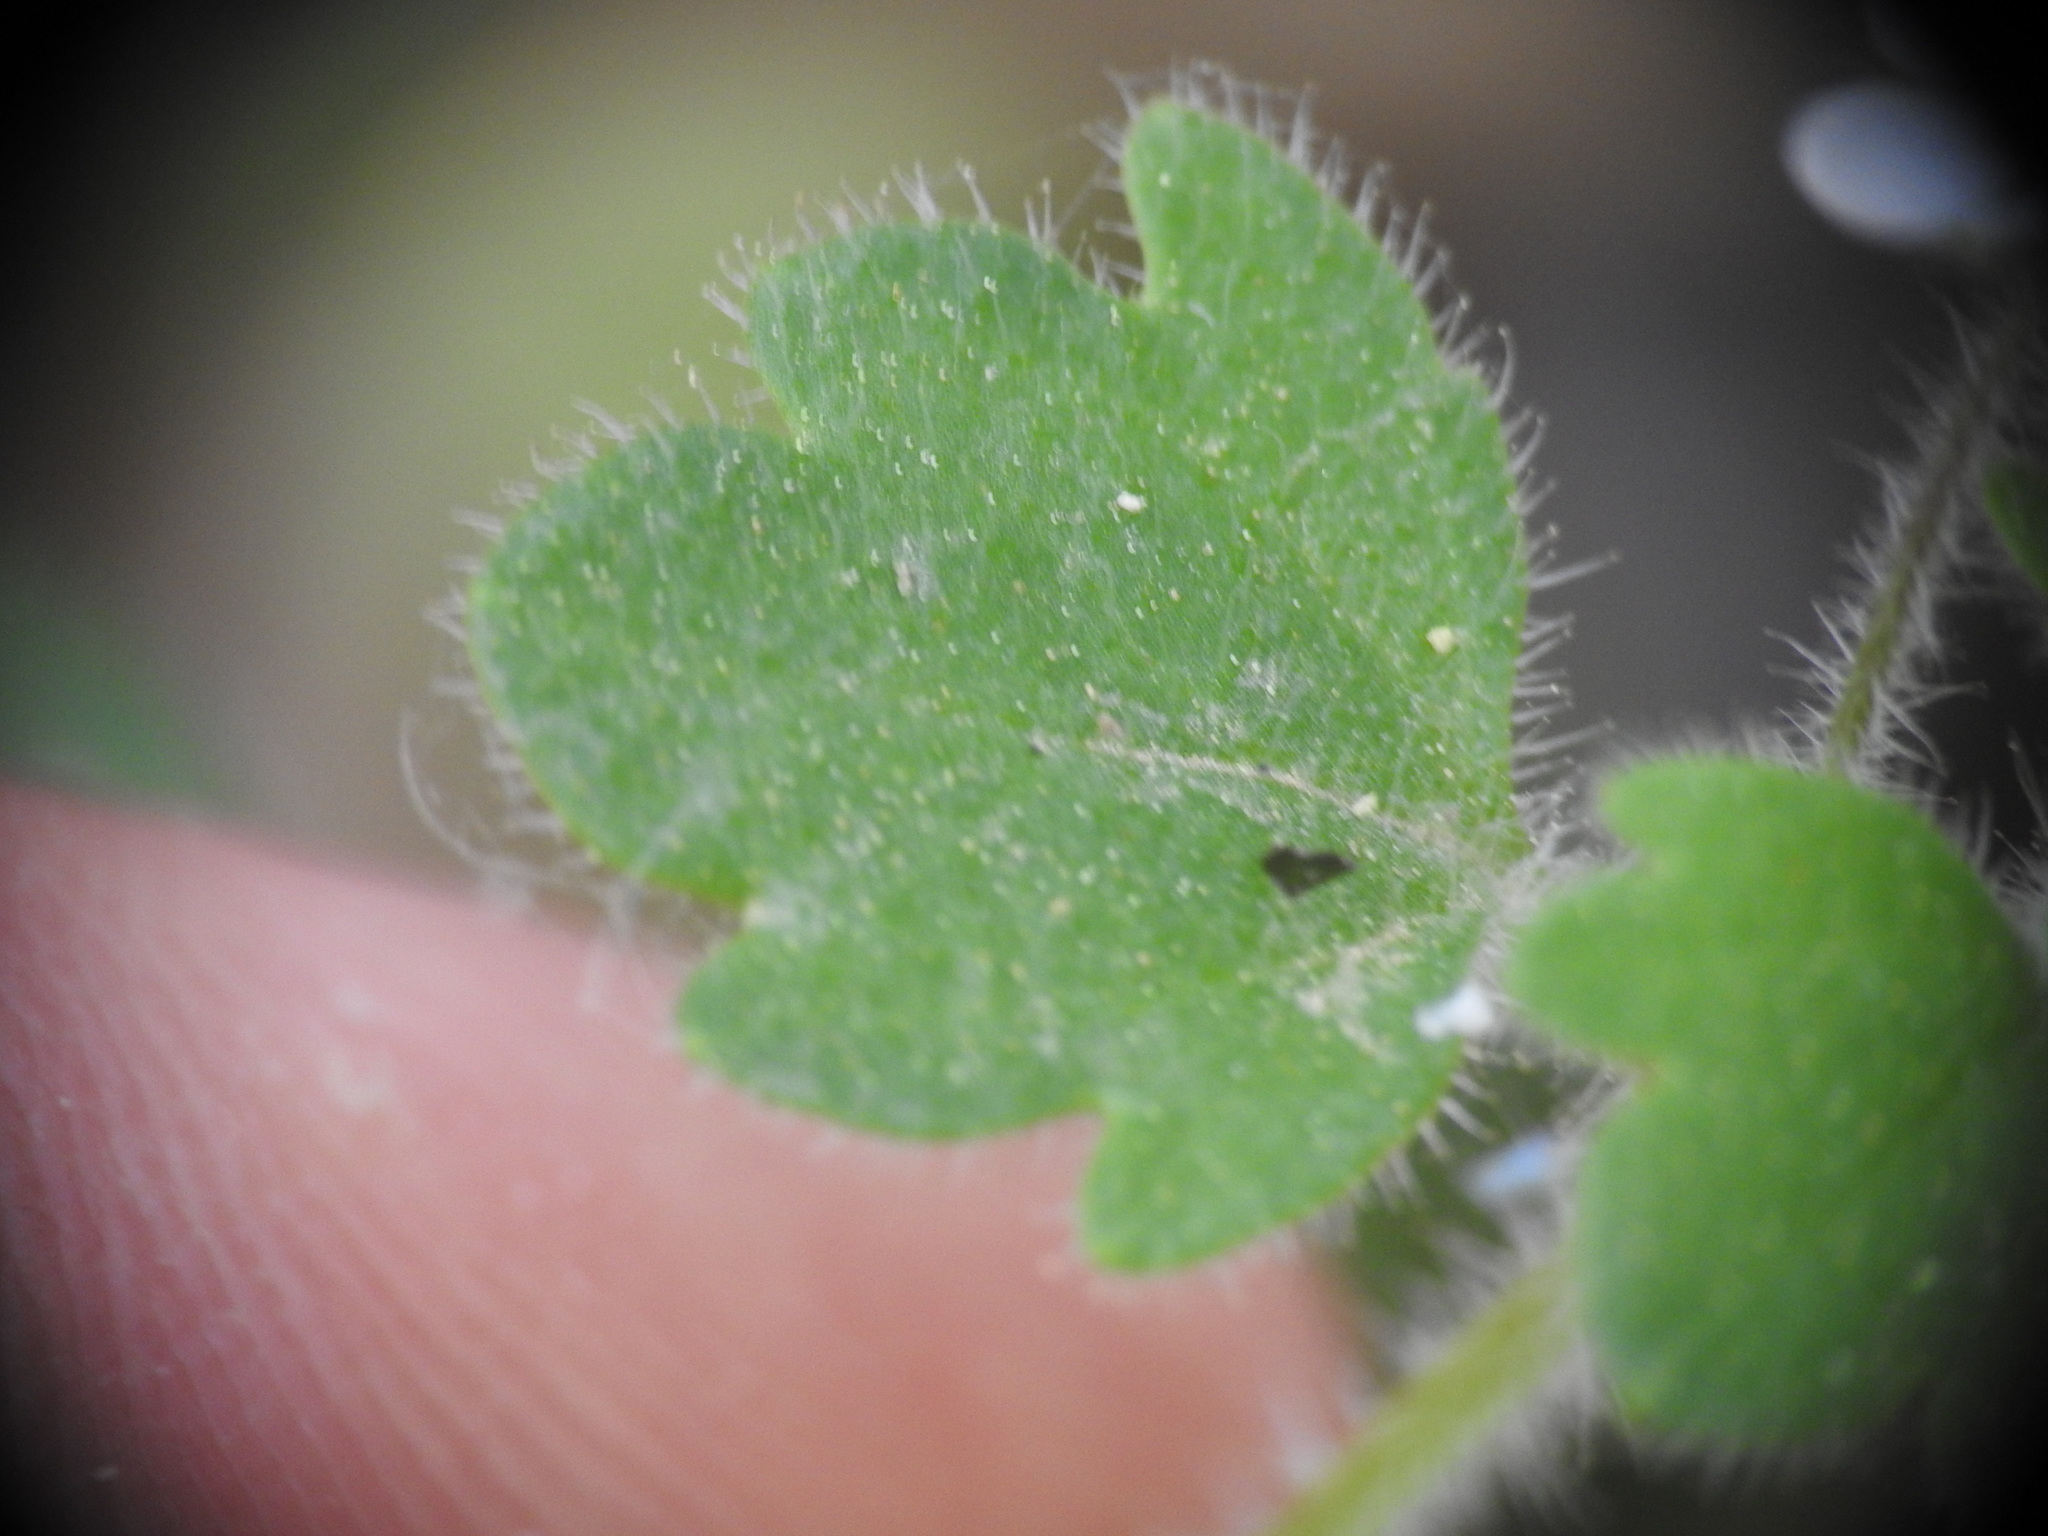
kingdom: Plantae
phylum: Tracheophyta
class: Magnoliopsida
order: Lamiales
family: Plantaginaceae
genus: Veronica
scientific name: Veronica cymbalaria
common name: Pale speedwell
